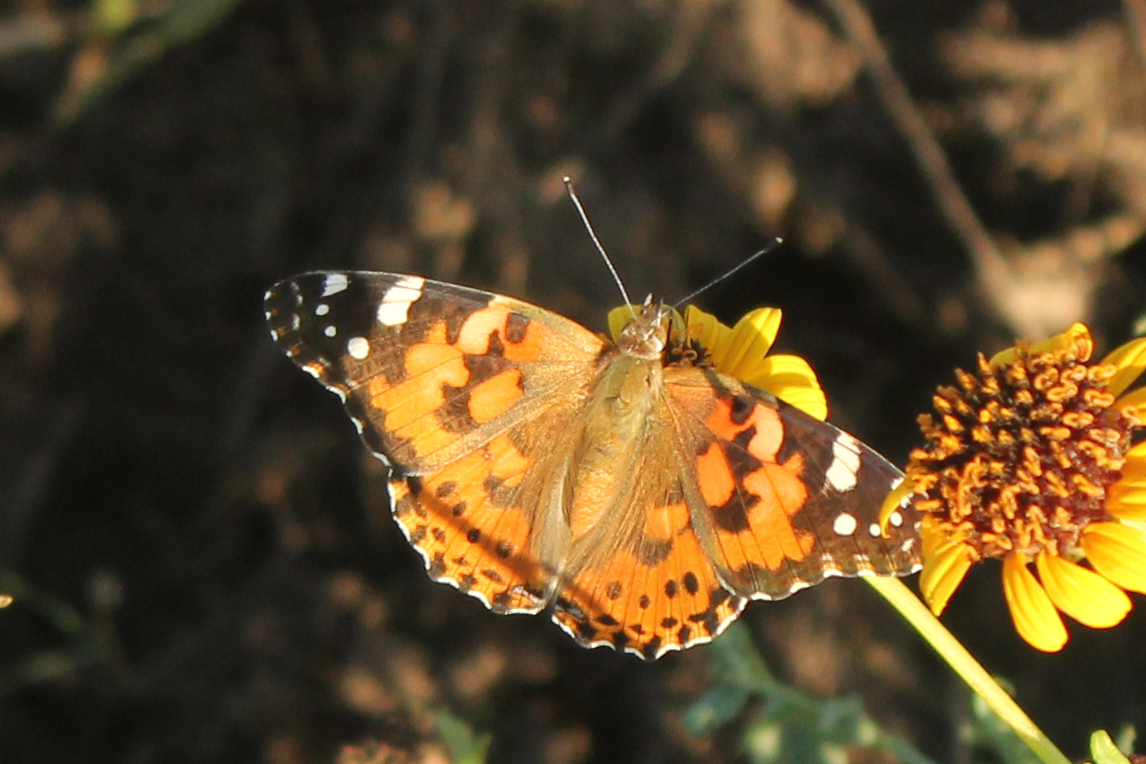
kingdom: Animalia
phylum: Arthropoda
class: Insecta
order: Lepidoptera
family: Nymphalidae
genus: Vanessa
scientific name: Vanessa cardui
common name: Painted lady
